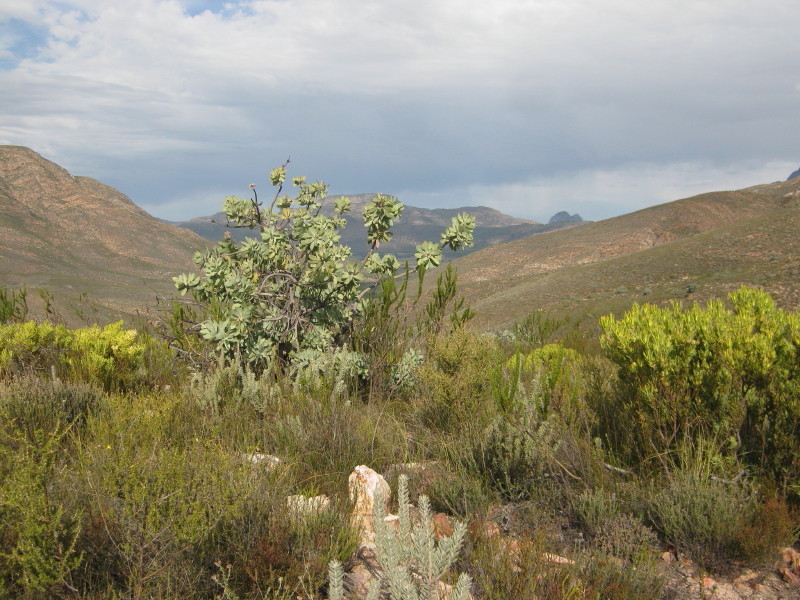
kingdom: Plantae
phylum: Tracheophyta
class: Magnoliopsida
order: Proteales
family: Proteaceae
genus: Protea
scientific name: Protea nitida
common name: Tree protea
